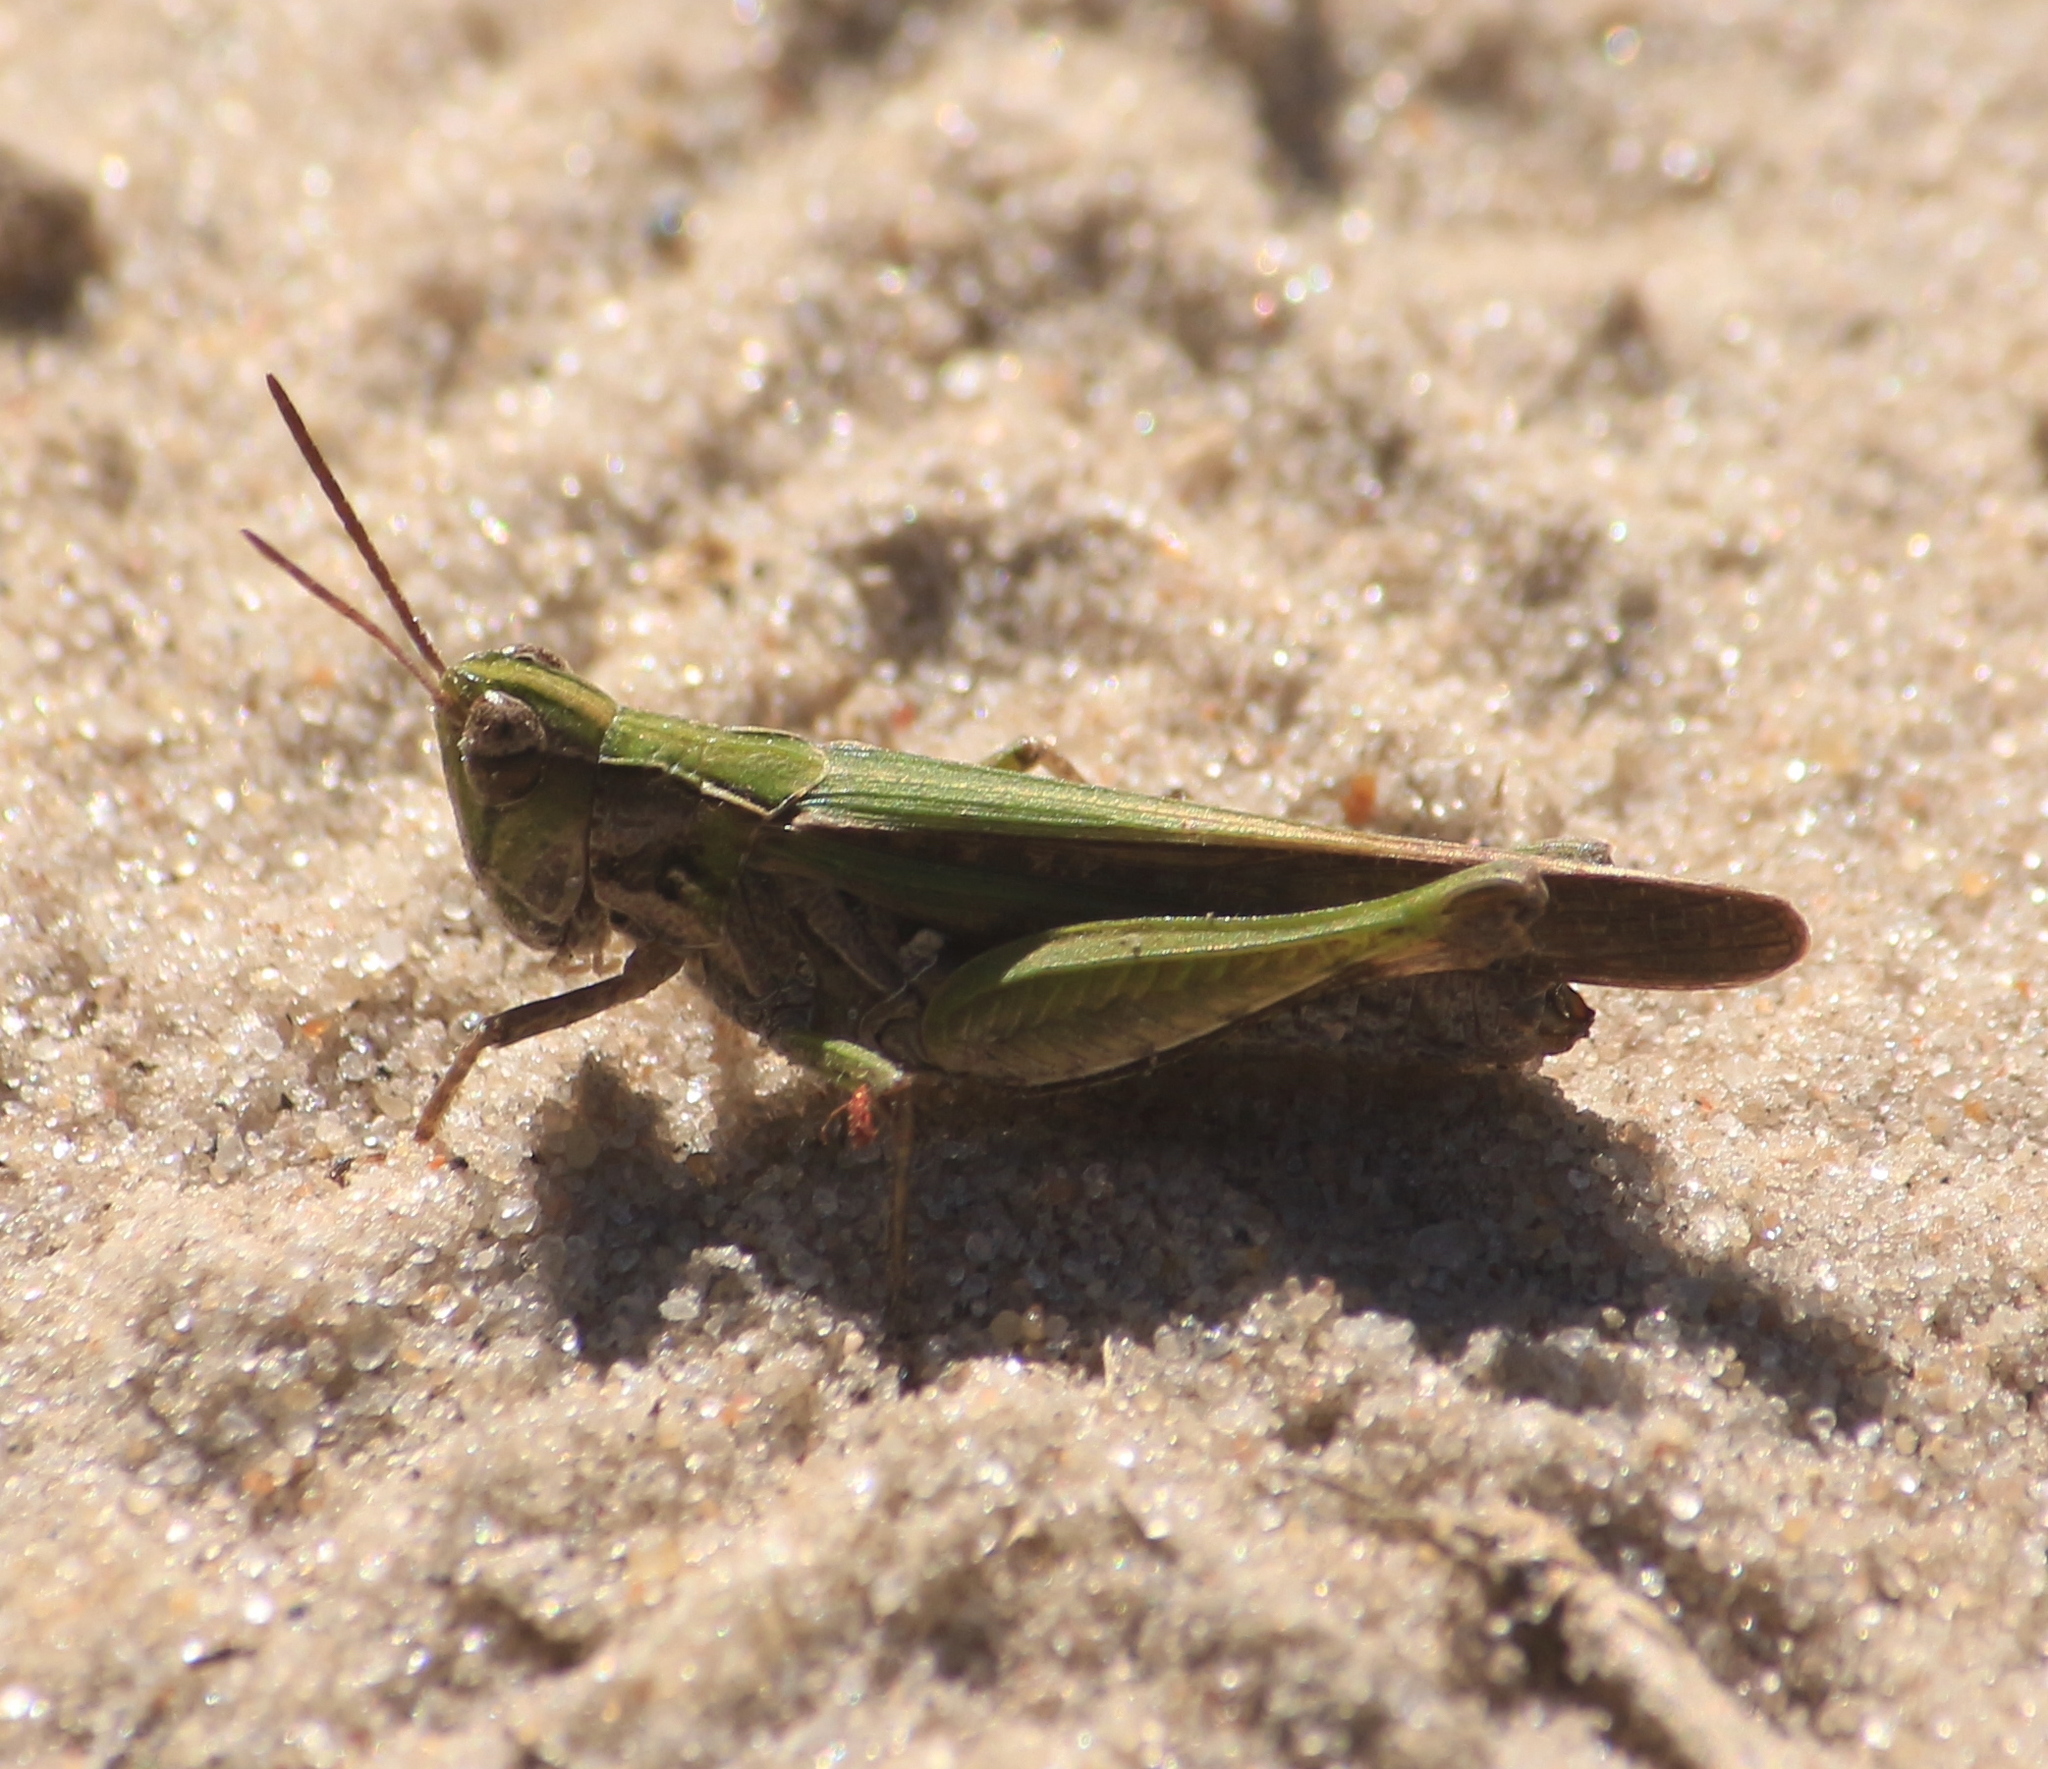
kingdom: Animalia
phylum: Arthropoda
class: Insecta
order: Orthoptera
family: Acrididae
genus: Orphulella
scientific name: Orphulella punctata
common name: Slant-faced grasshopper
